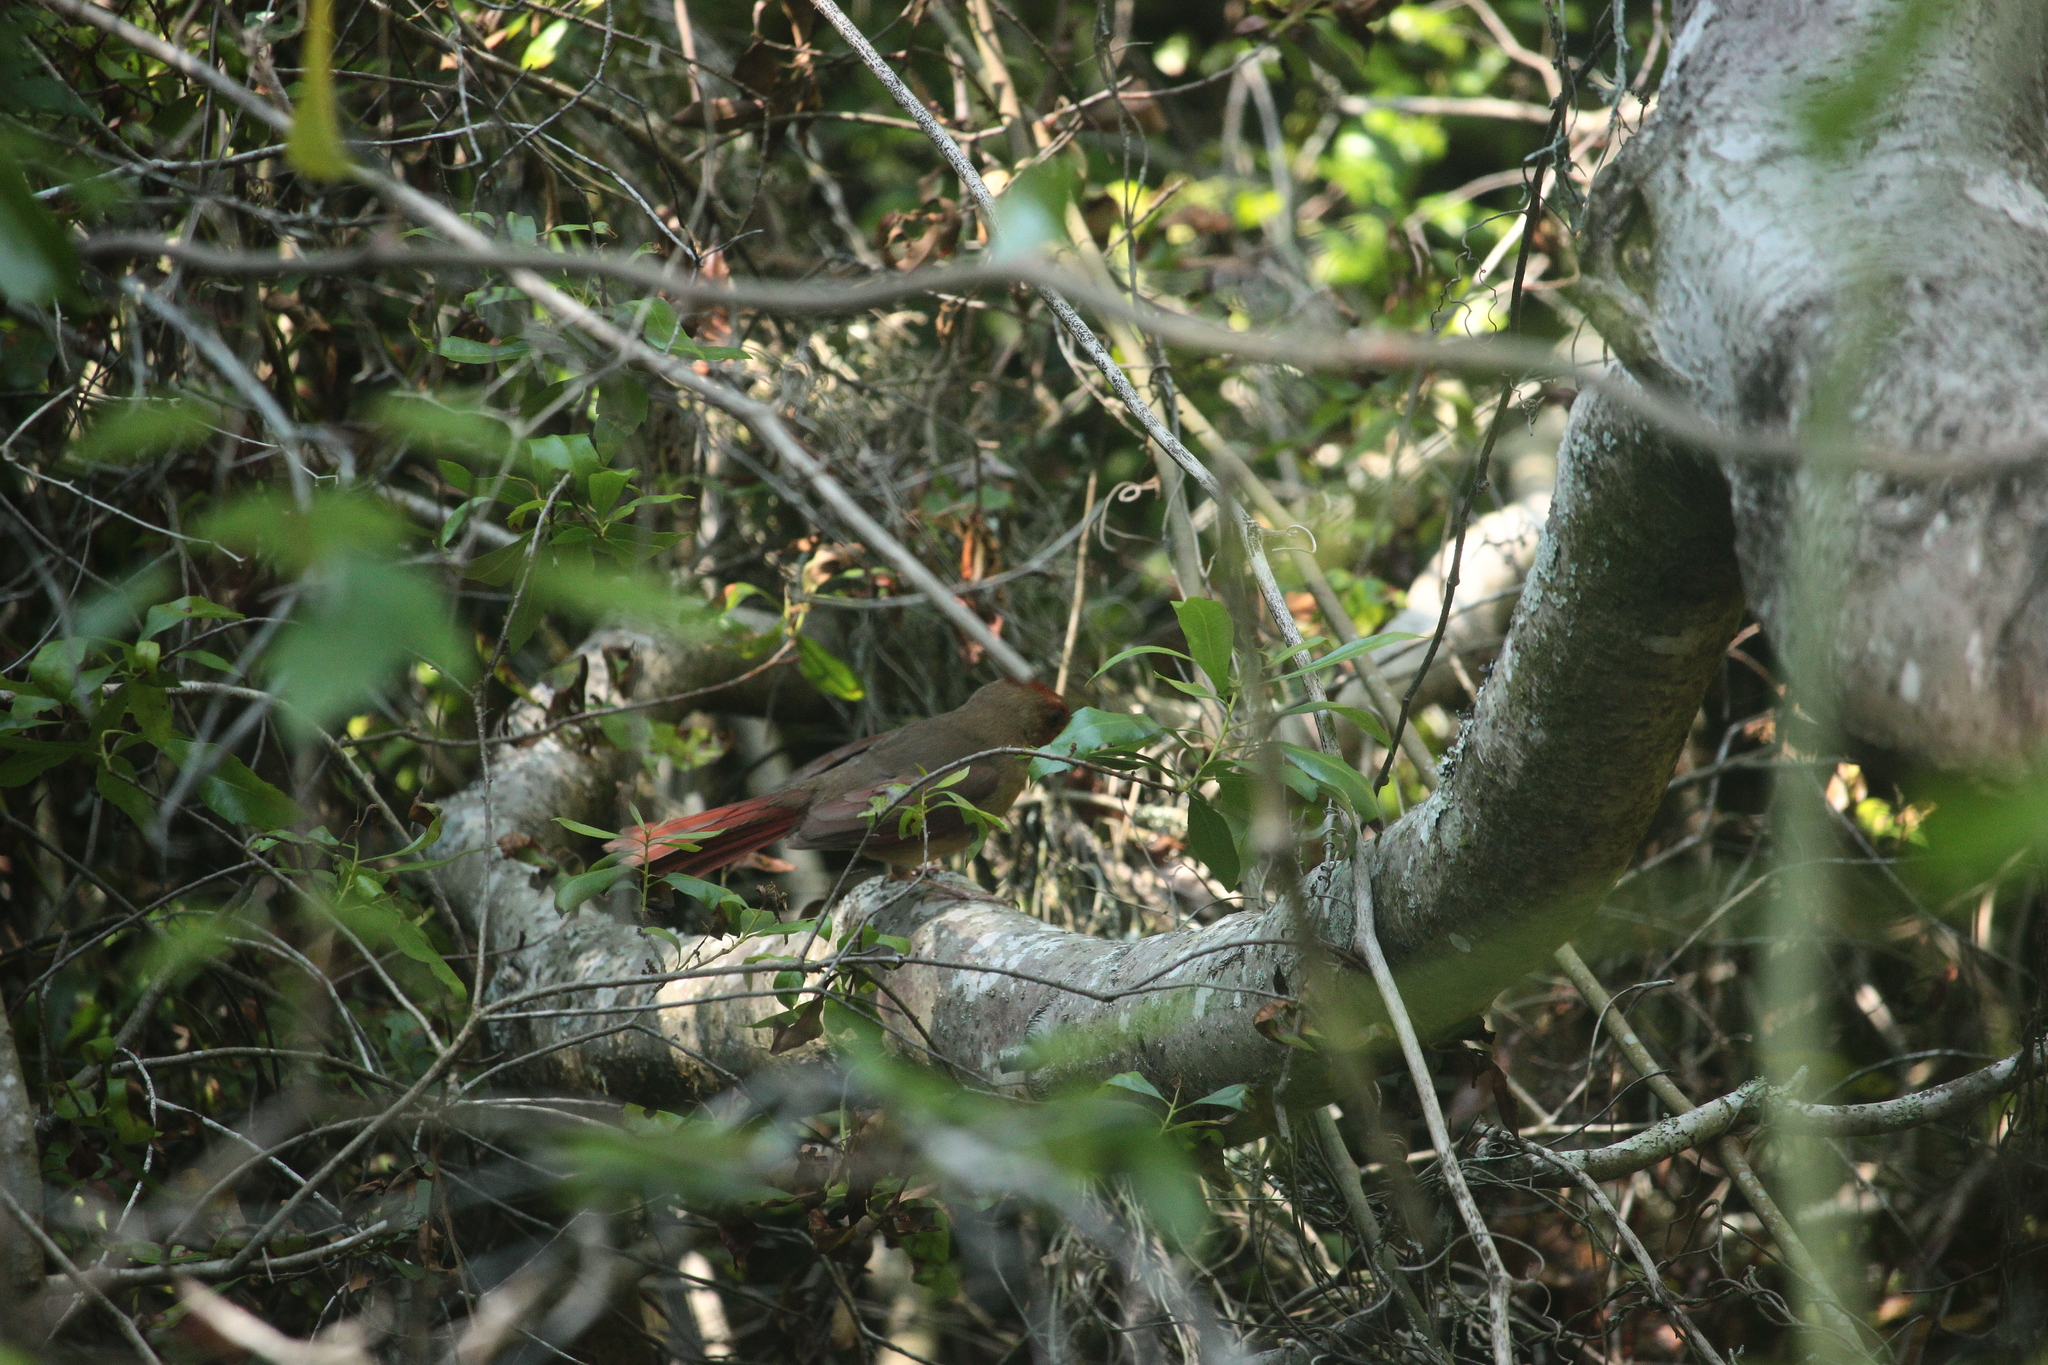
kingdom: Animalia
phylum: Chordata
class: Aves
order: Passeriformes
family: Cardinalidae
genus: Cardinalis
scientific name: Cardinalis cardinalis
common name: Northern cardinal
